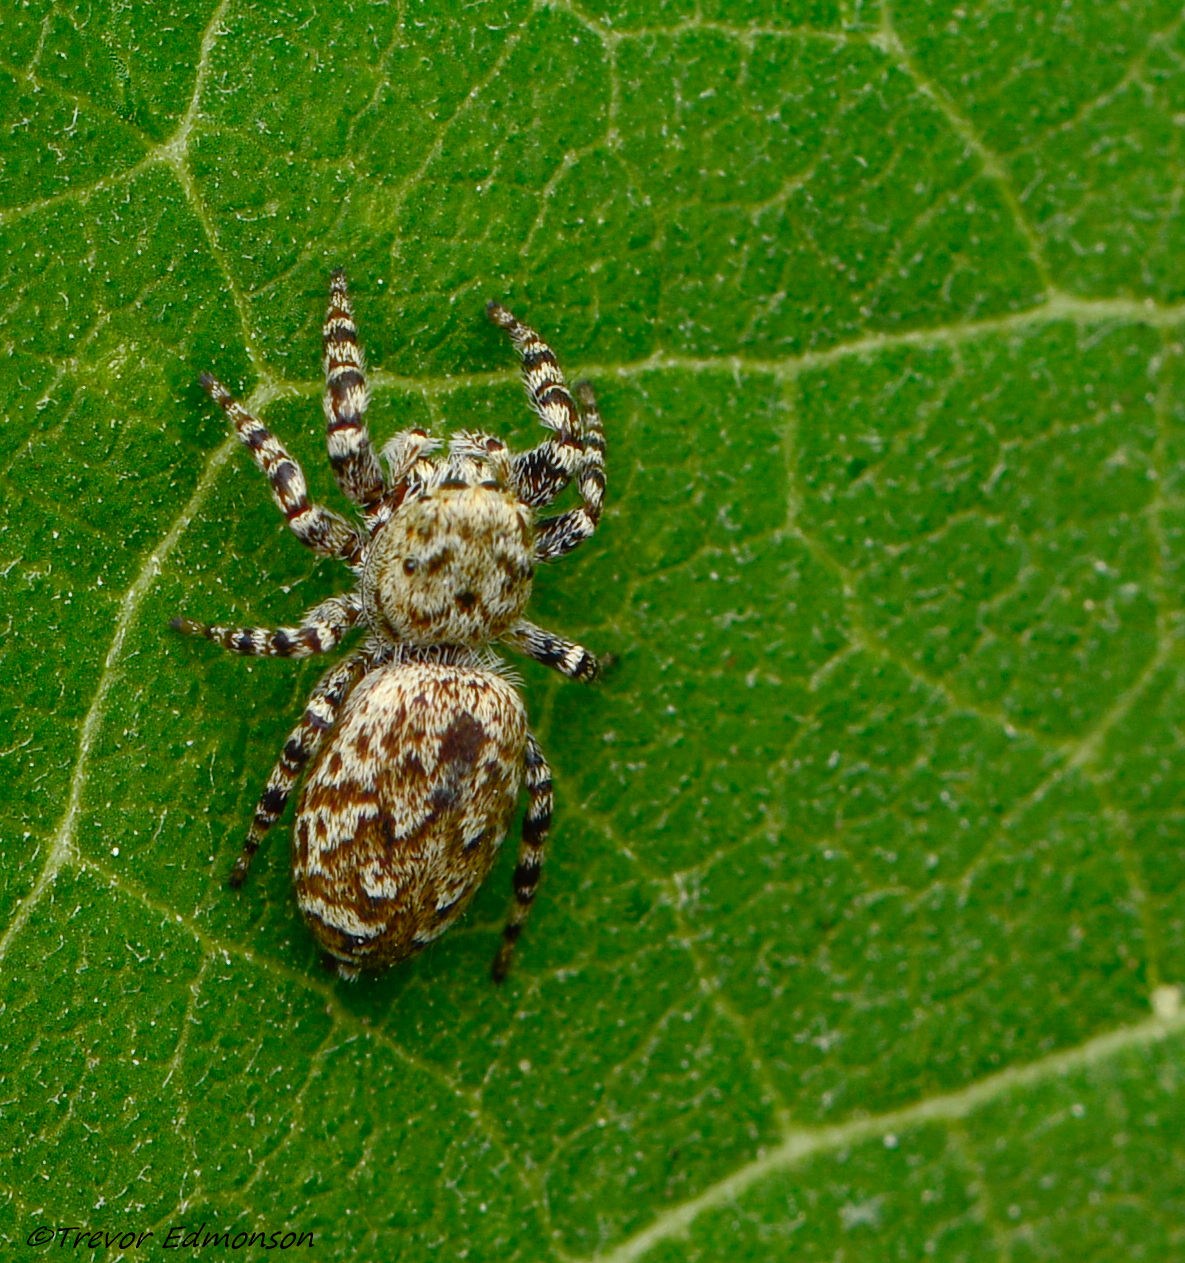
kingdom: Animalia
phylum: Arthropoda
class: Arachnida
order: Araneae
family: Salticidae
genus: Pelegrina
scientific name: Pelegrina galathea
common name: Jumping spiders
